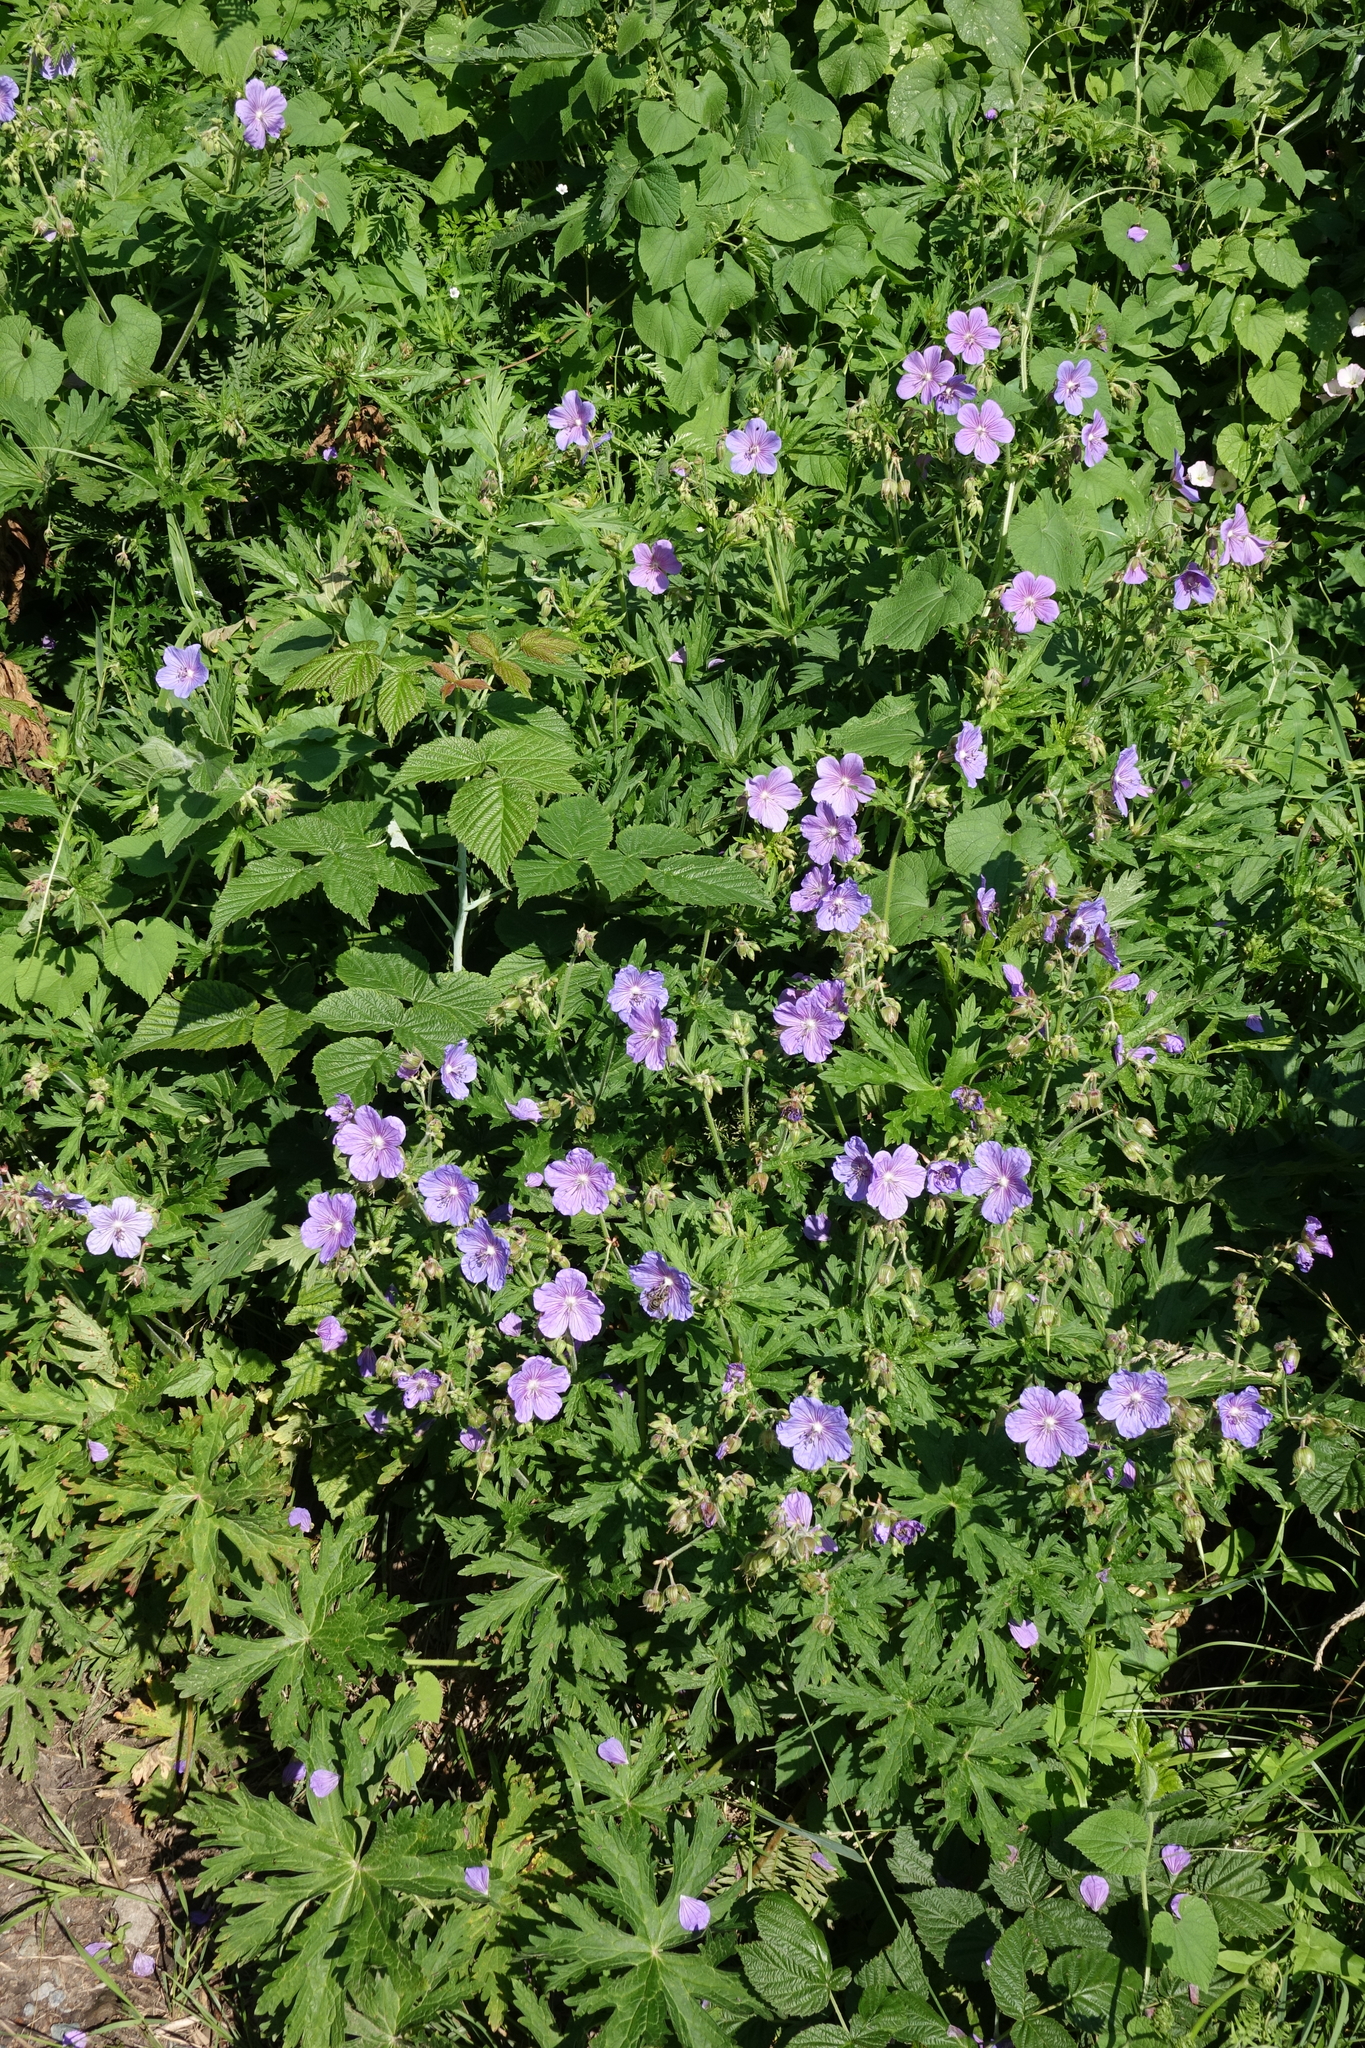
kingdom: Plantae
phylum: Tracheophyta
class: Magnoliopsida
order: Geraniales
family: Geraniaceae
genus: Geranium
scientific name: Geranium pratense
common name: Meadow crane's-bill
